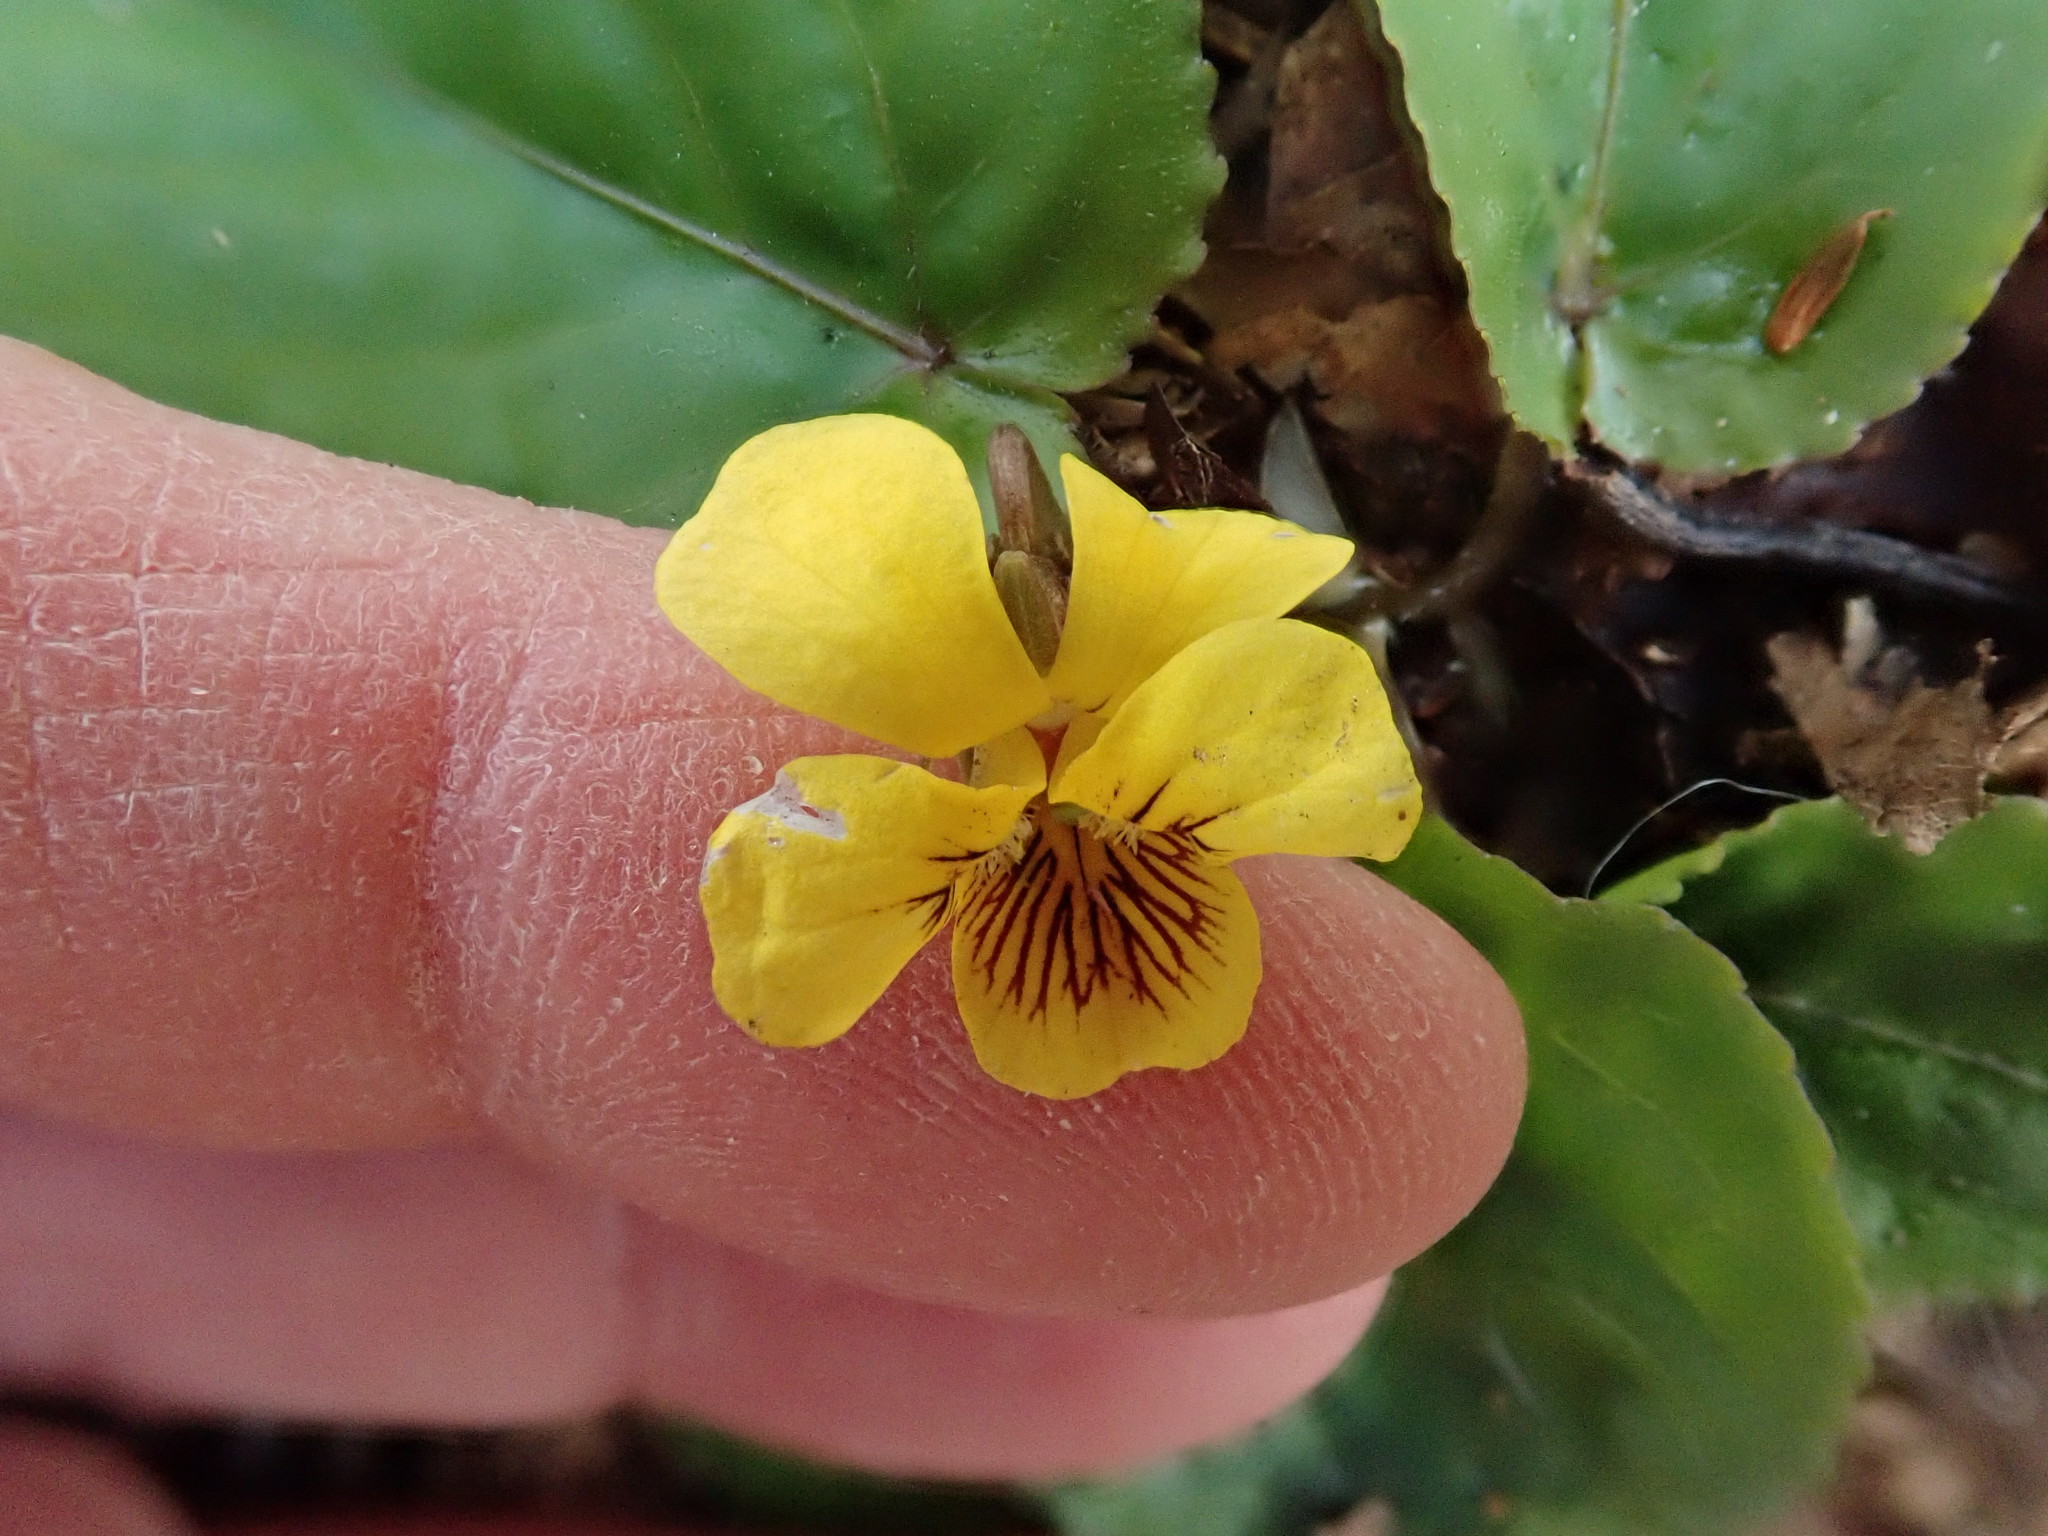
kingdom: Plantae
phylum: Tracheophyta
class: Magnoliopsida
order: Malpighiales
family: Violaceae
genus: Viola
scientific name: Viola rotundifolia
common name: Early yellow violet
